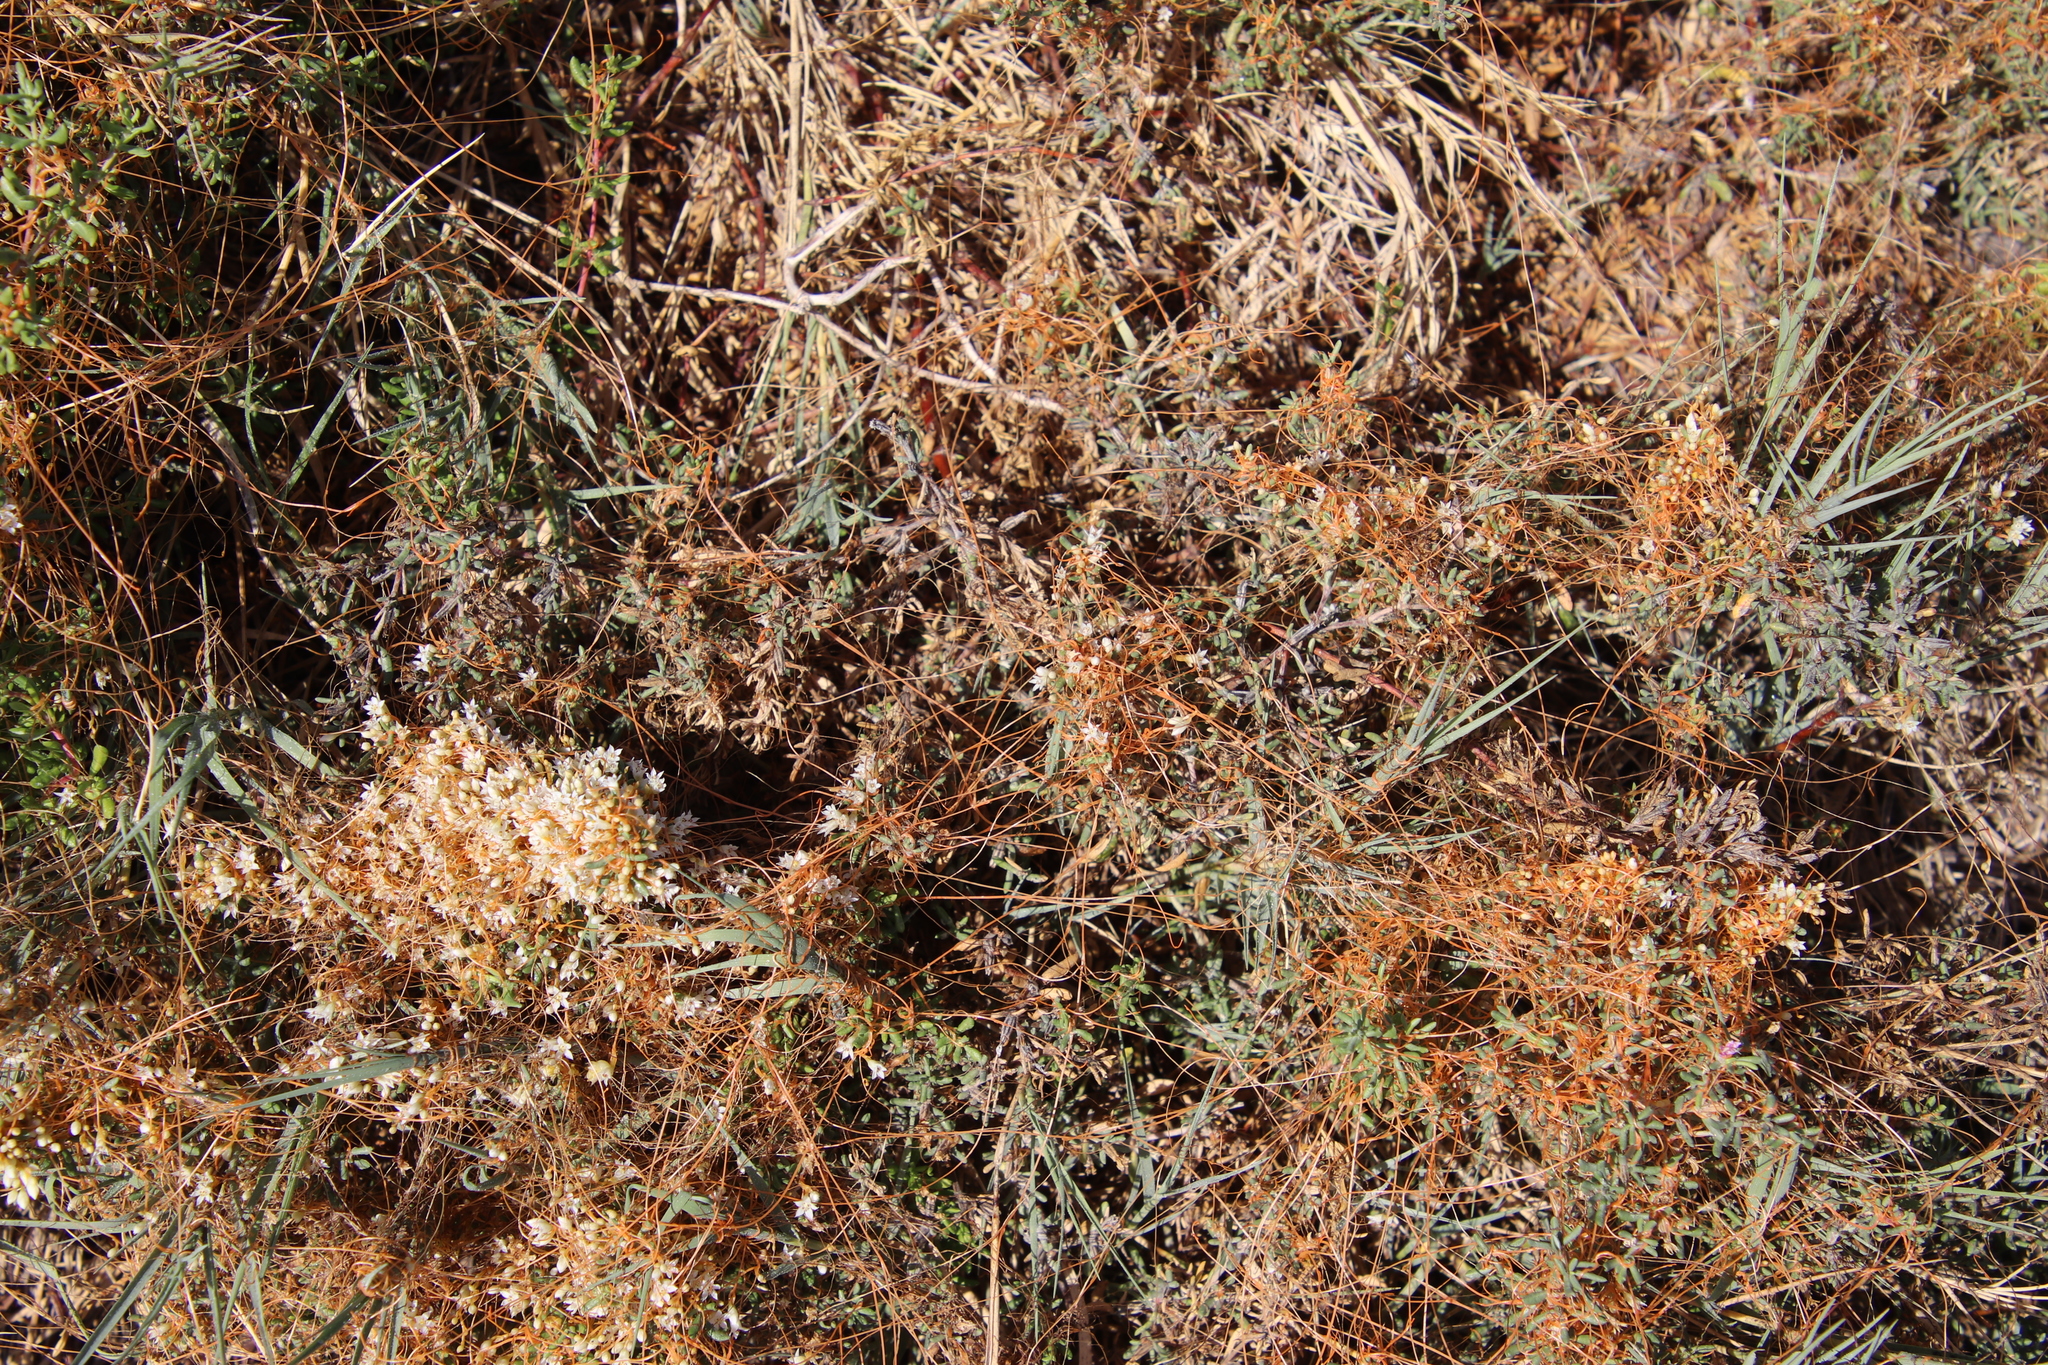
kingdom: Plantae
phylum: Tracheophyta
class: Magnoliopsida
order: Solanales
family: Convolvulaceae
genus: Cuscuta
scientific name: Cuscuta pacifica
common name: Large saltmarsh dodder
